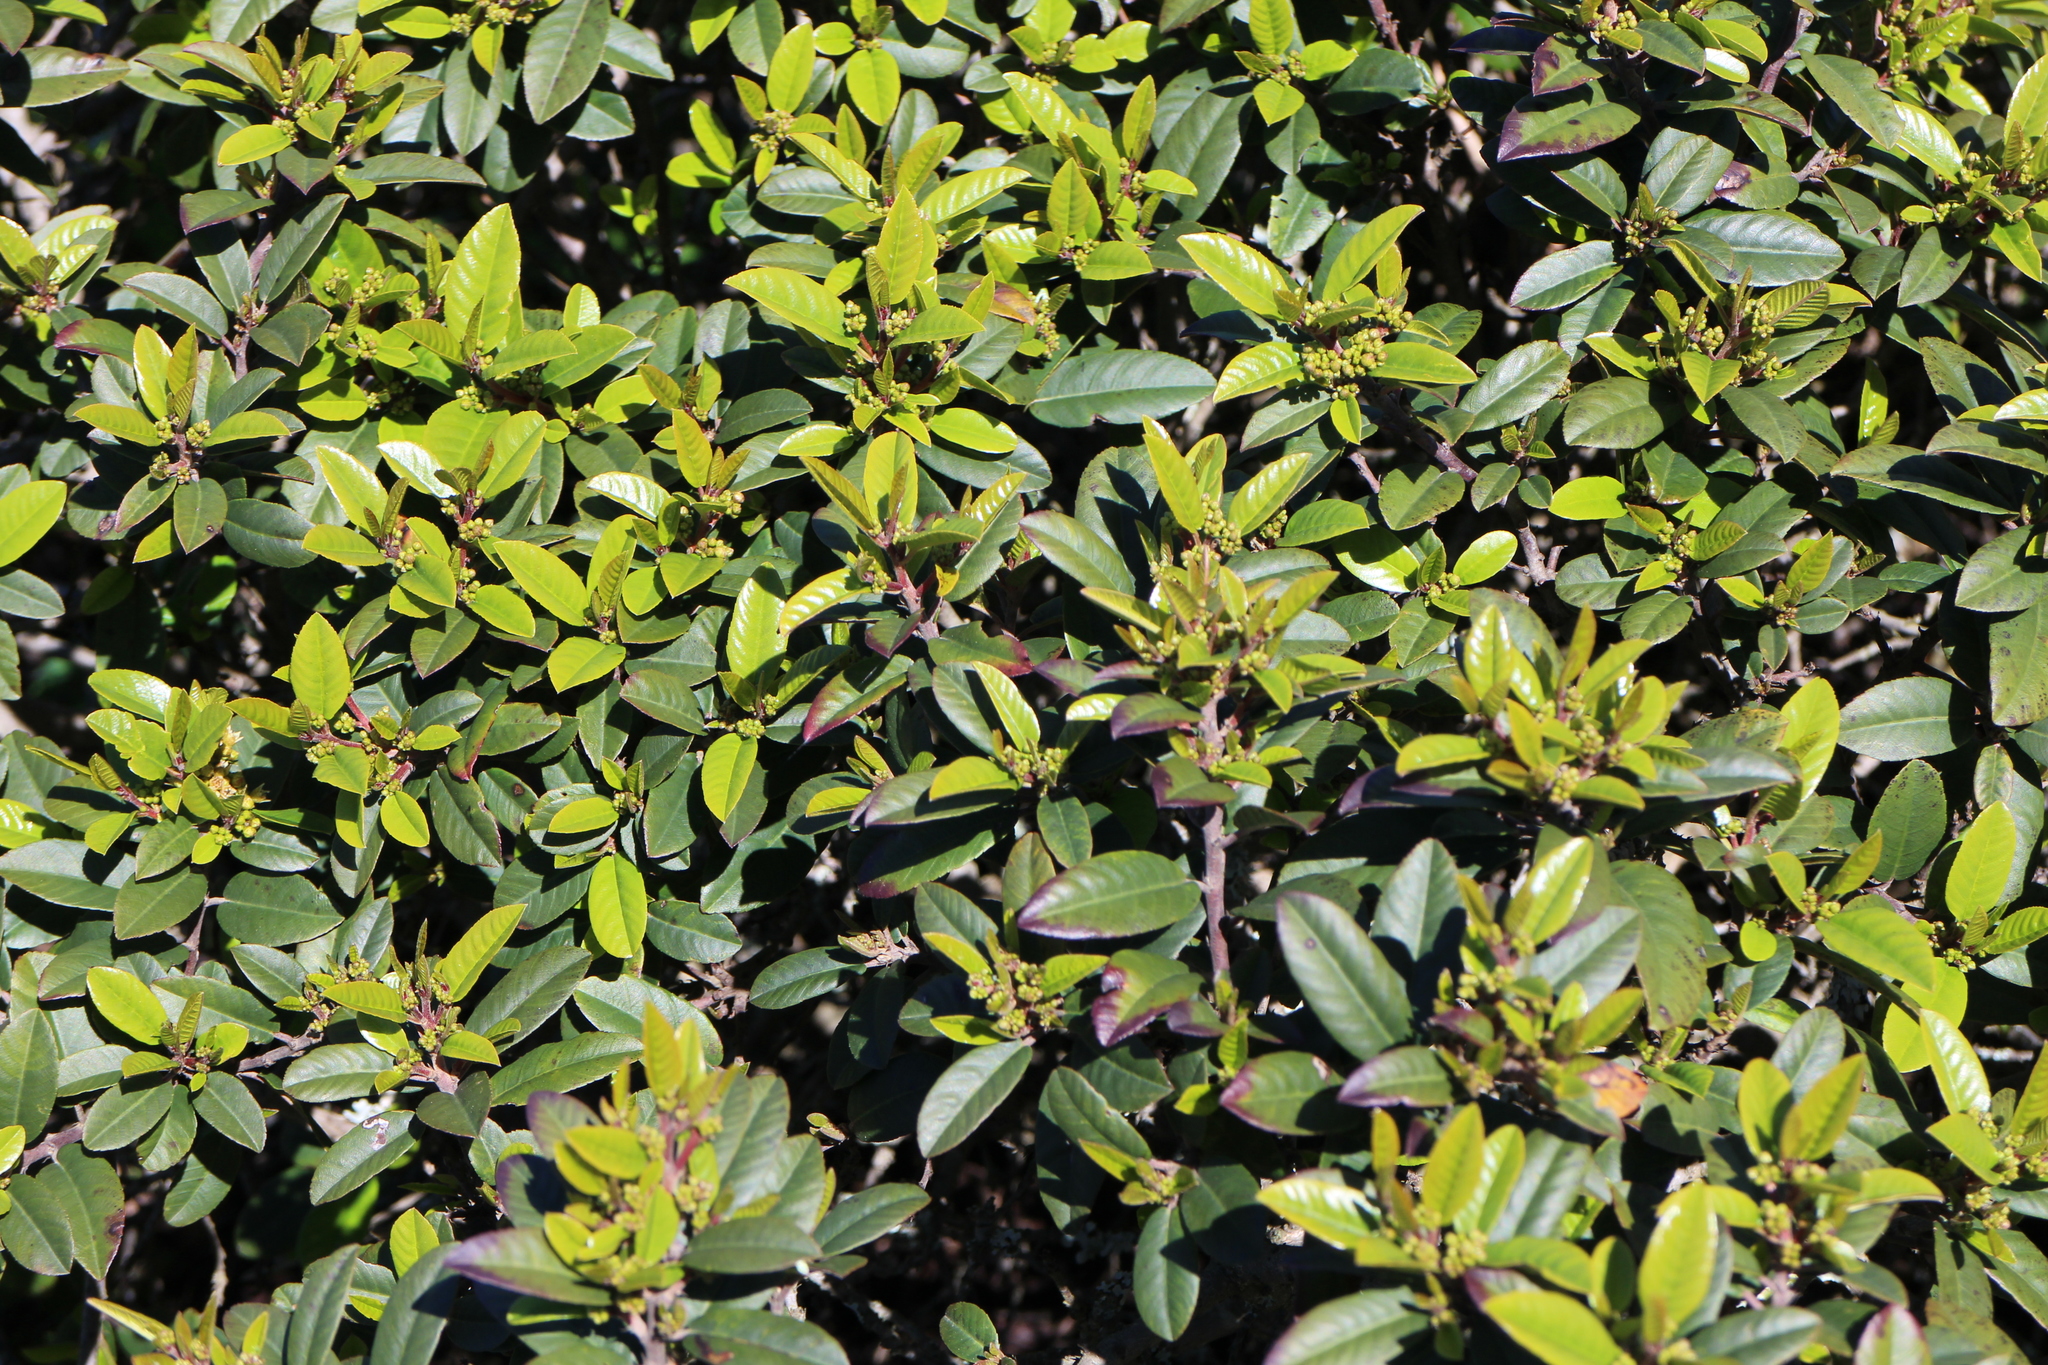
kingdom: Plantae
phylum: Tracheophyta
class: Magnoliopsida
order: Rosales
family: Rhamnaceae
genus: Frangula
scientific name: Frangula californica
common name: California buckthorn
